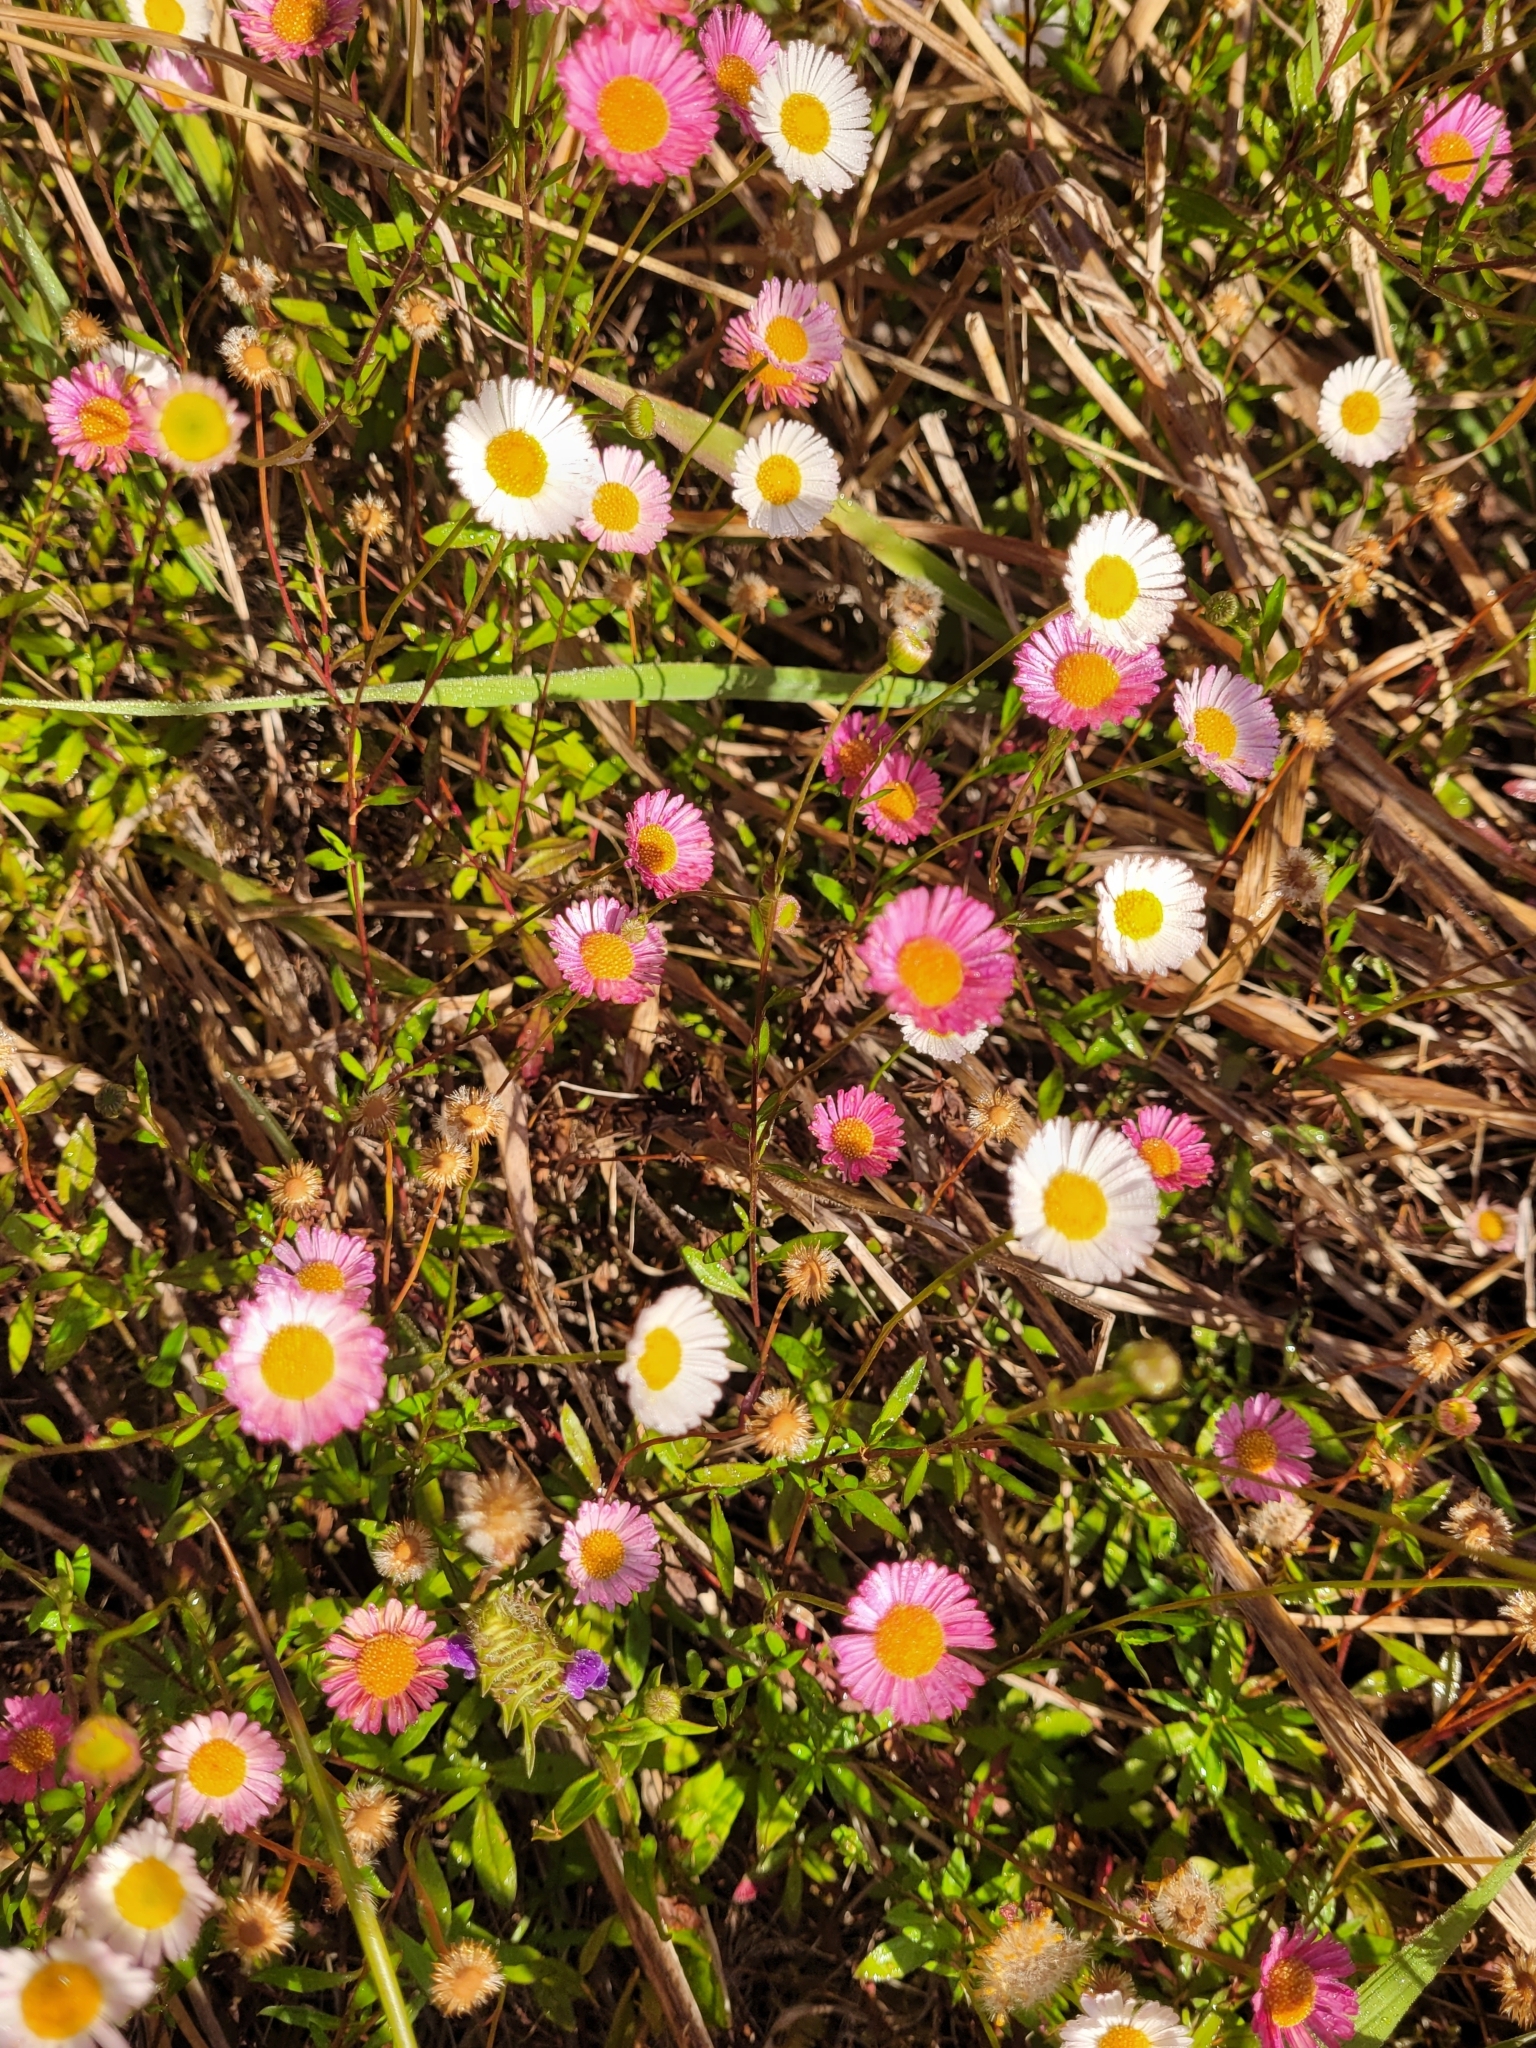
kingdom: Plantae
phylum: Tracheophyta
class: Magnoliopsida
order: Asterales
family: Asteraceae
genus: Erigeron
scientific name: Erigeron karvinskianus
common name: Mexican fleabane
